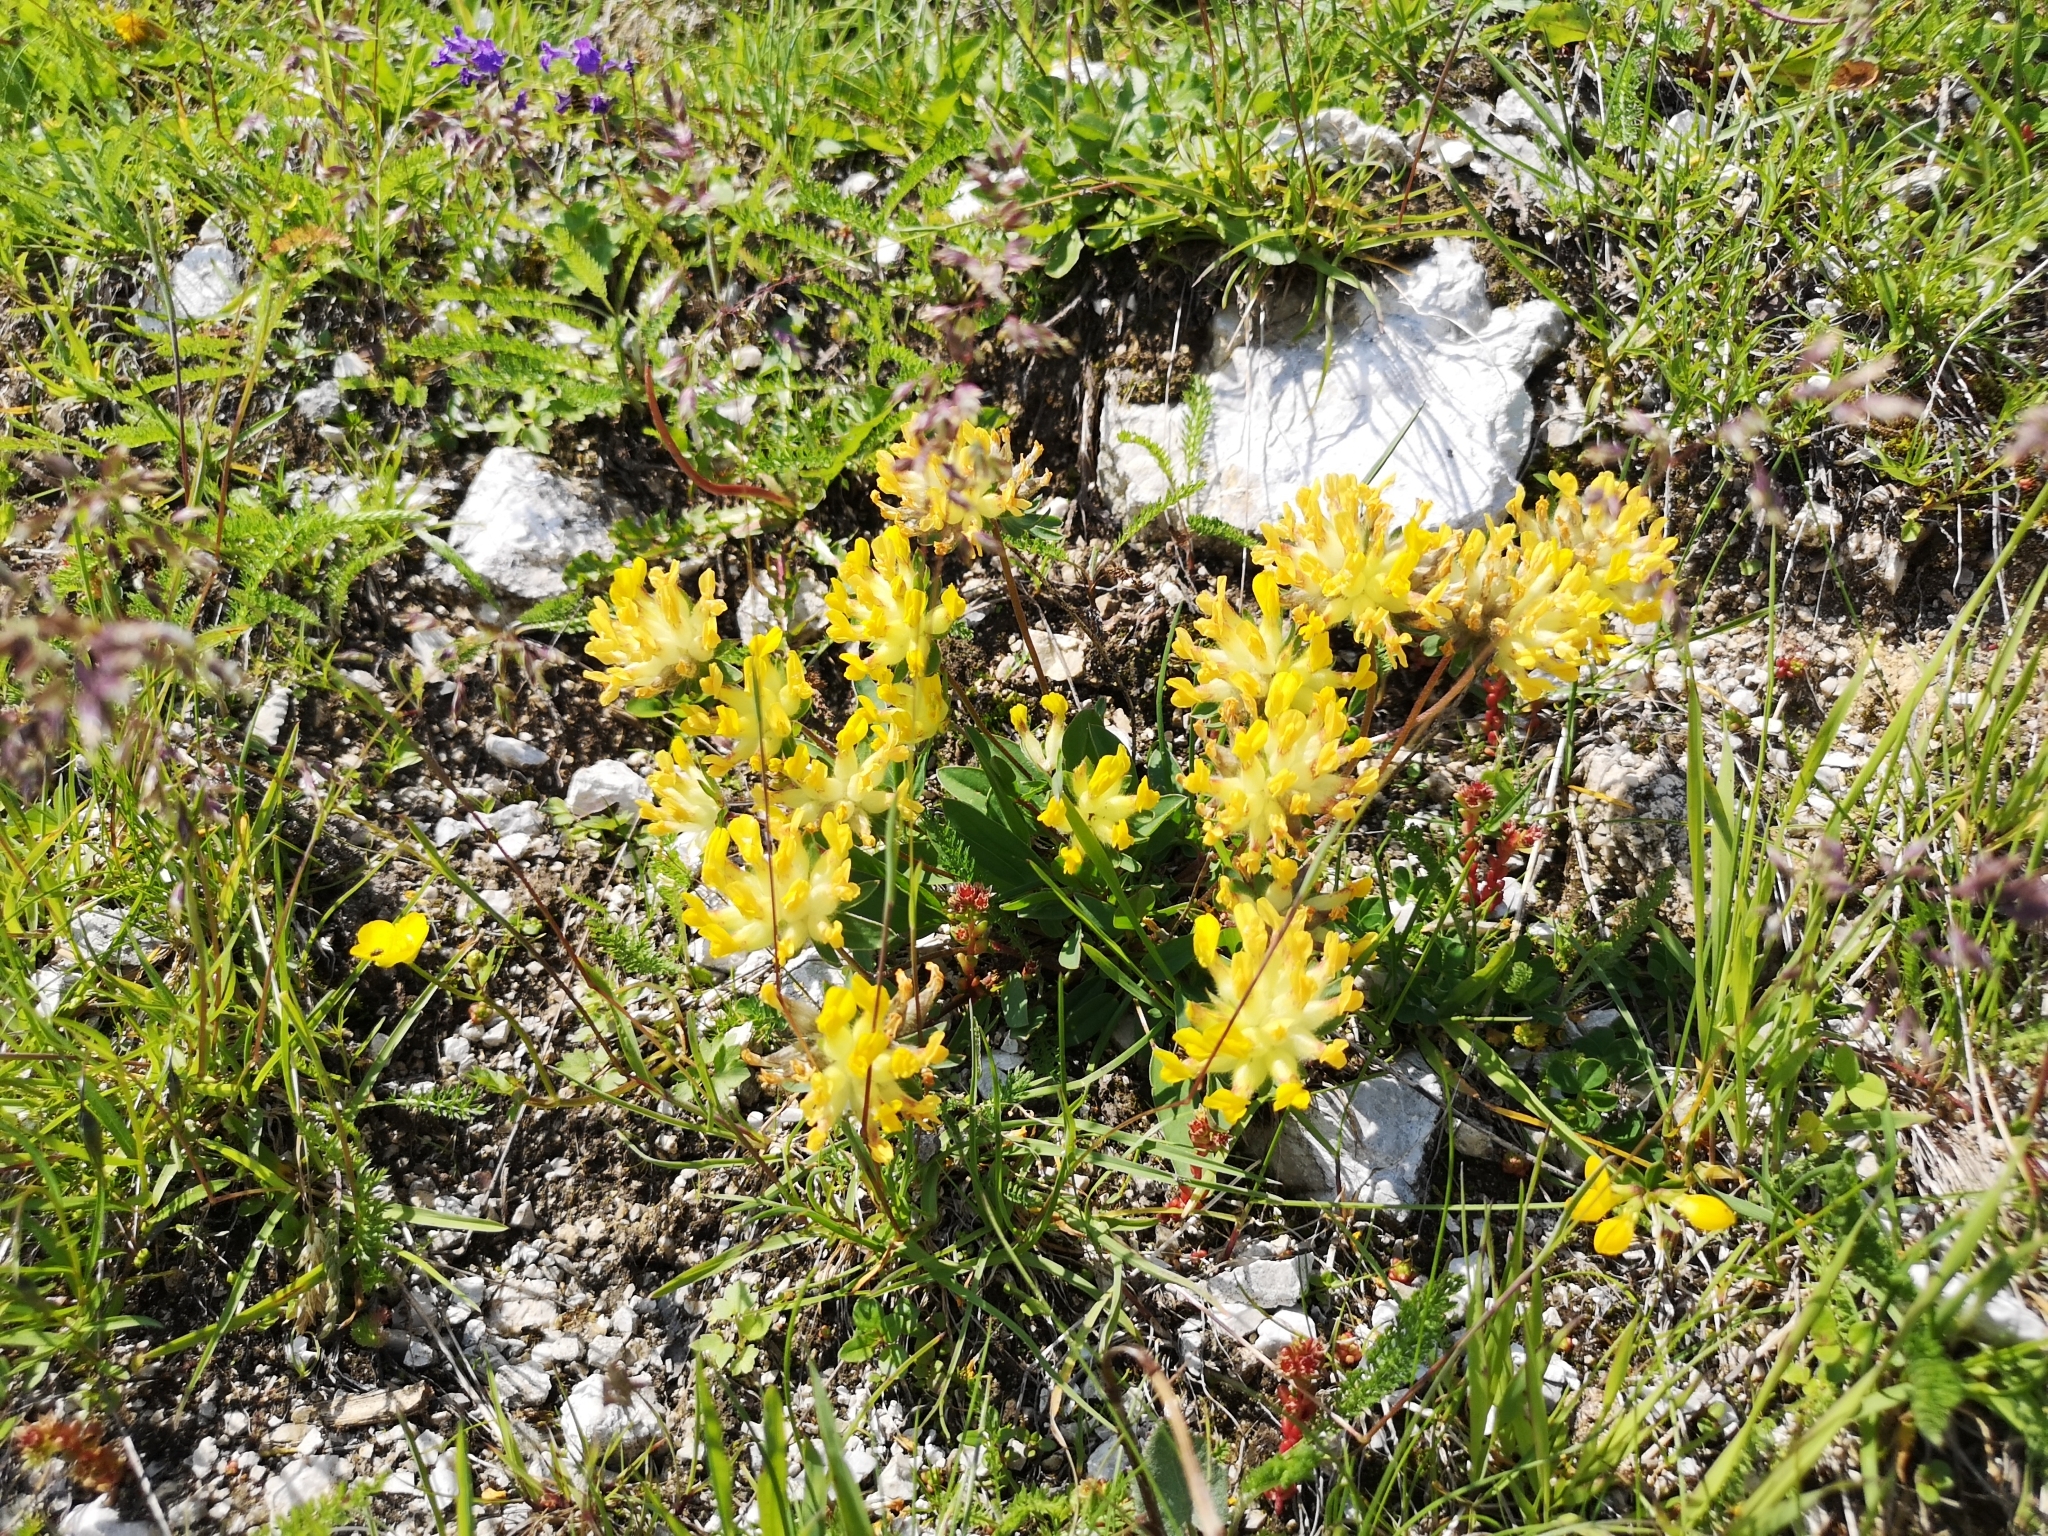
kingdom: Plantae
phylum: Tracheophyta
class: Magnoliopsida
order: Fabales
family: Fabaceae
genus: Anthyllis
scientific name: Anthyllis vulneraria
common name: Kidney vetch
